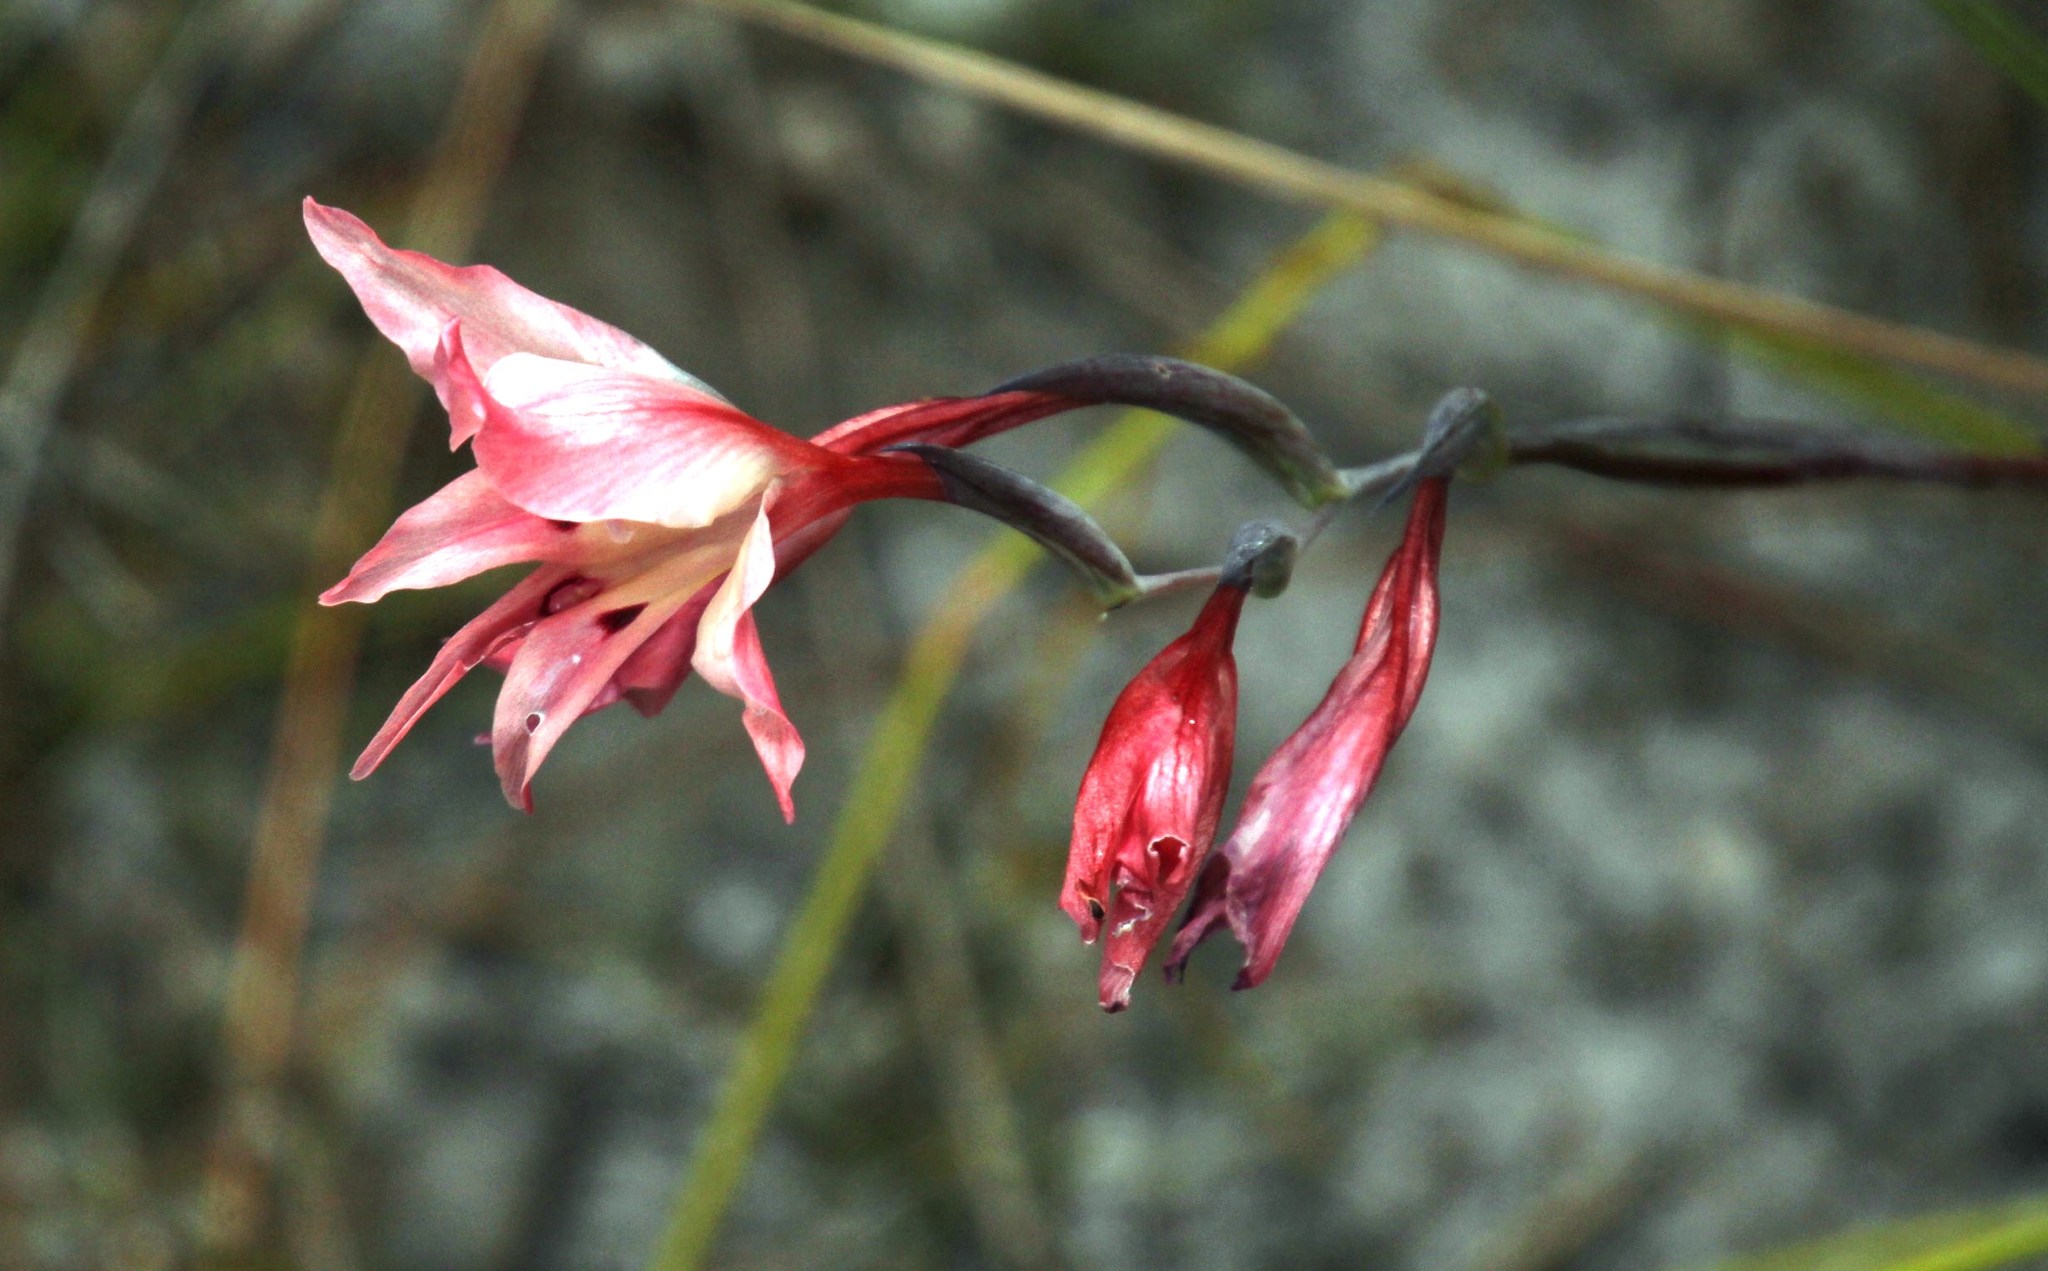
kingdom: Plantae
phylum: Tracheophyta
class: Liliopsida
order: Asparagales
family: Iridaceae
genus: Gladiolus
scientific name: Gladiolus carneus
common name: Painted-lady
